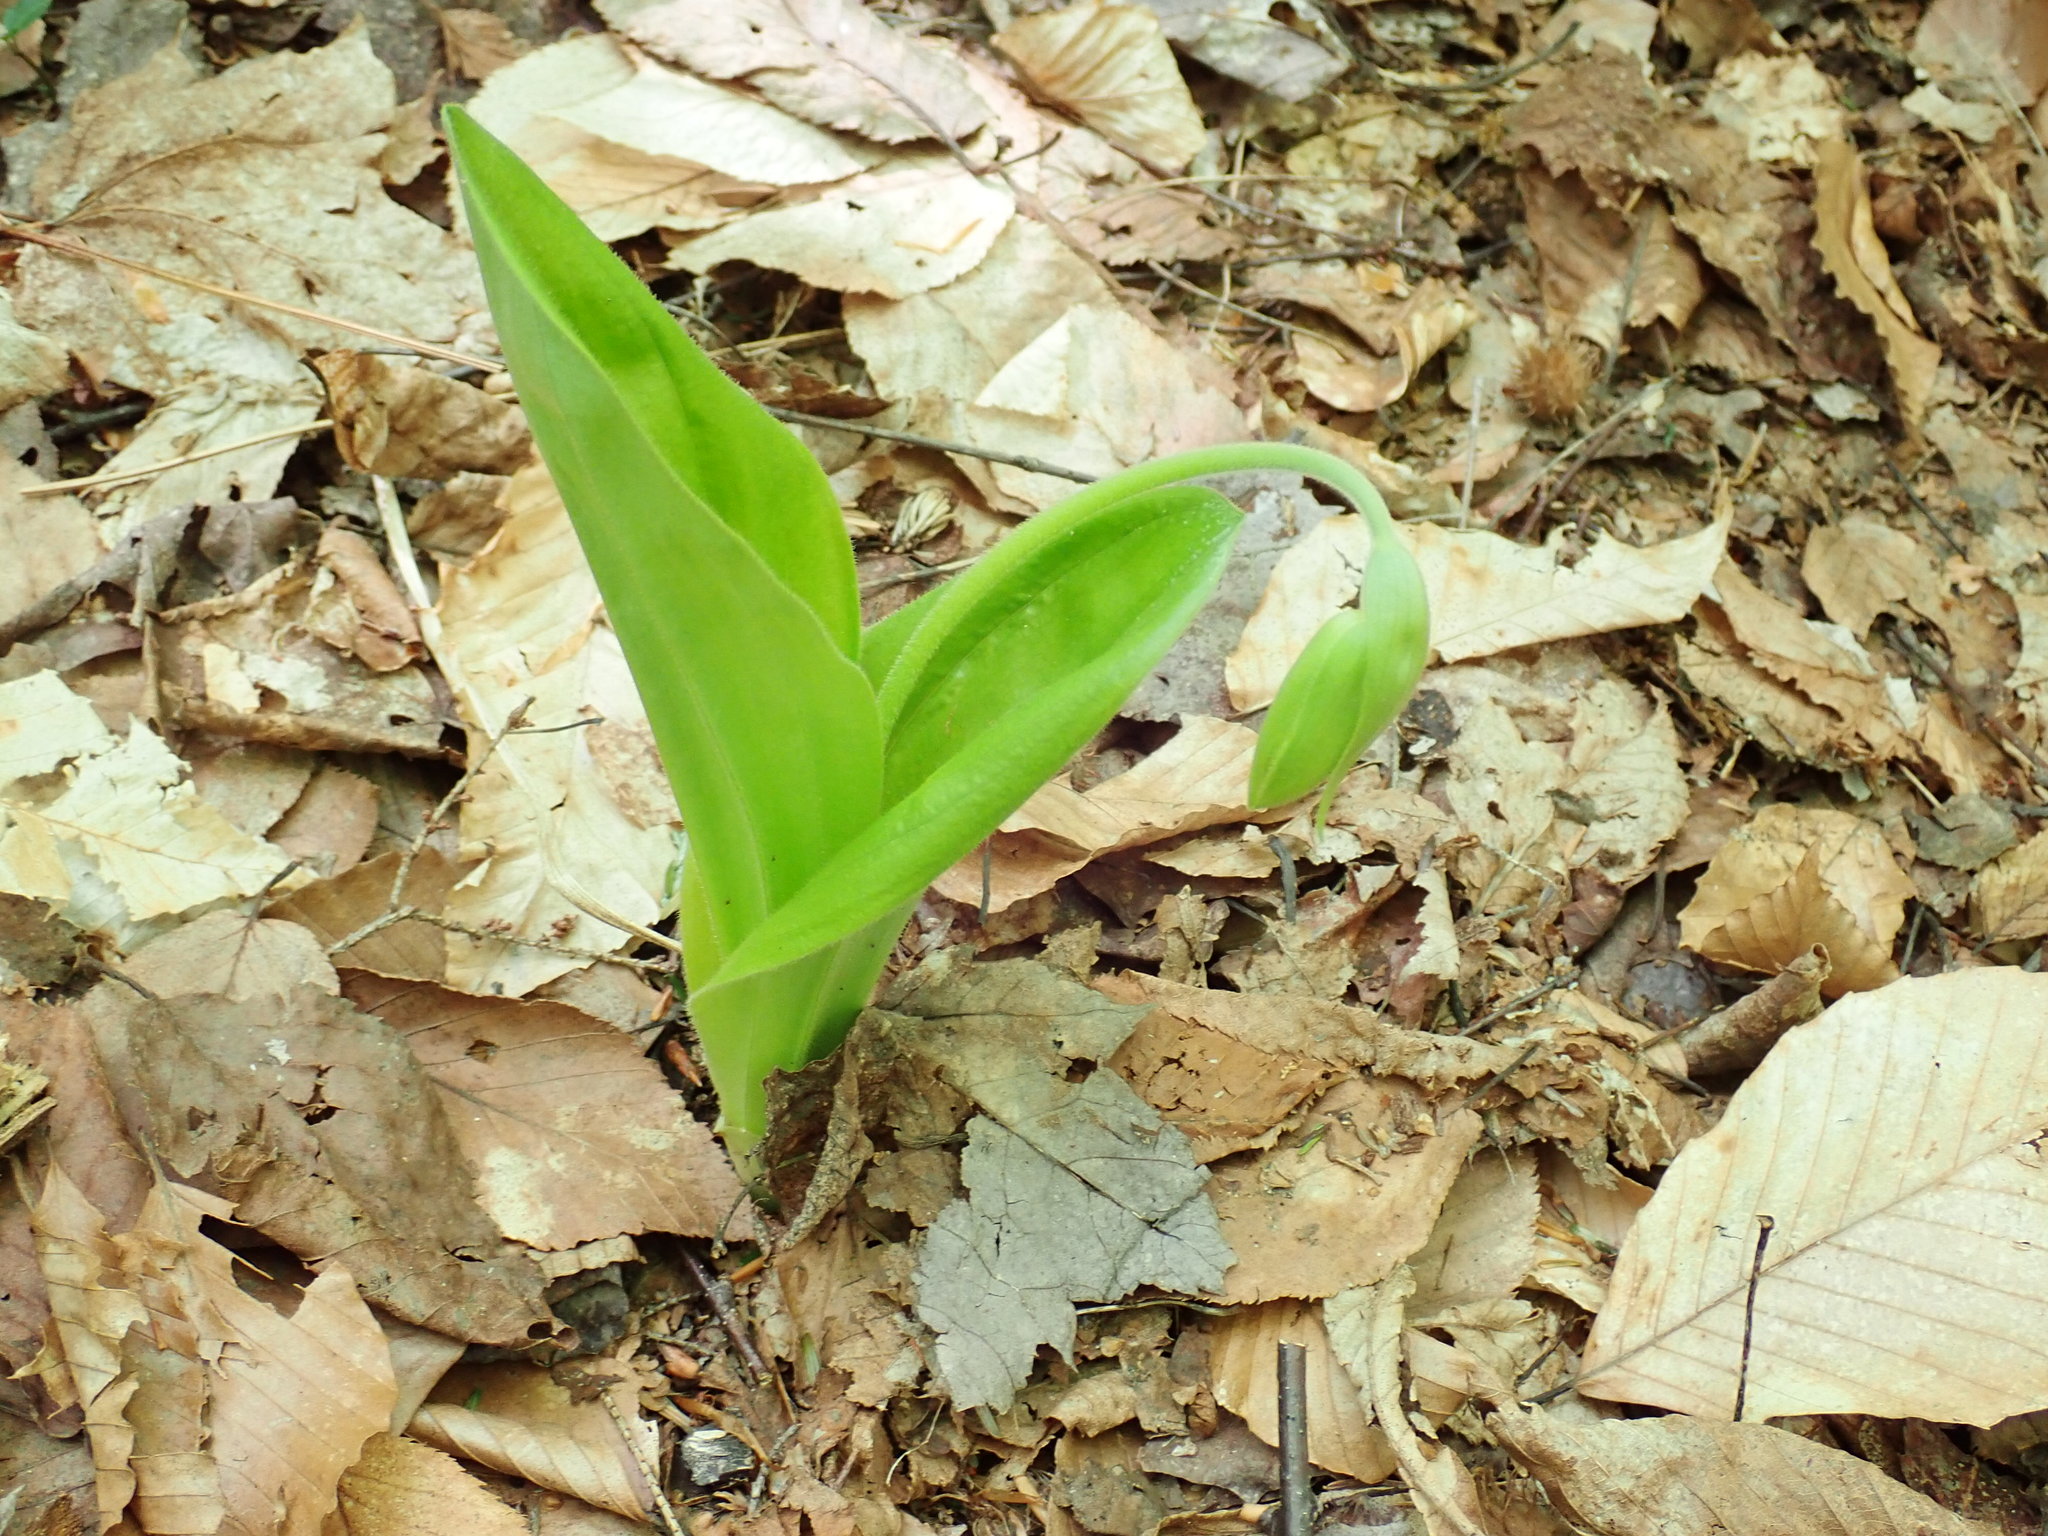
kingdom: Plantae
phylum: Tracheophyta
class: Liliopsida
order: Asparagales
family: Orchidaceae
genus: Cypripedium
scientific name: Cypripedium acaule
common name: Pink lady's-slipper
